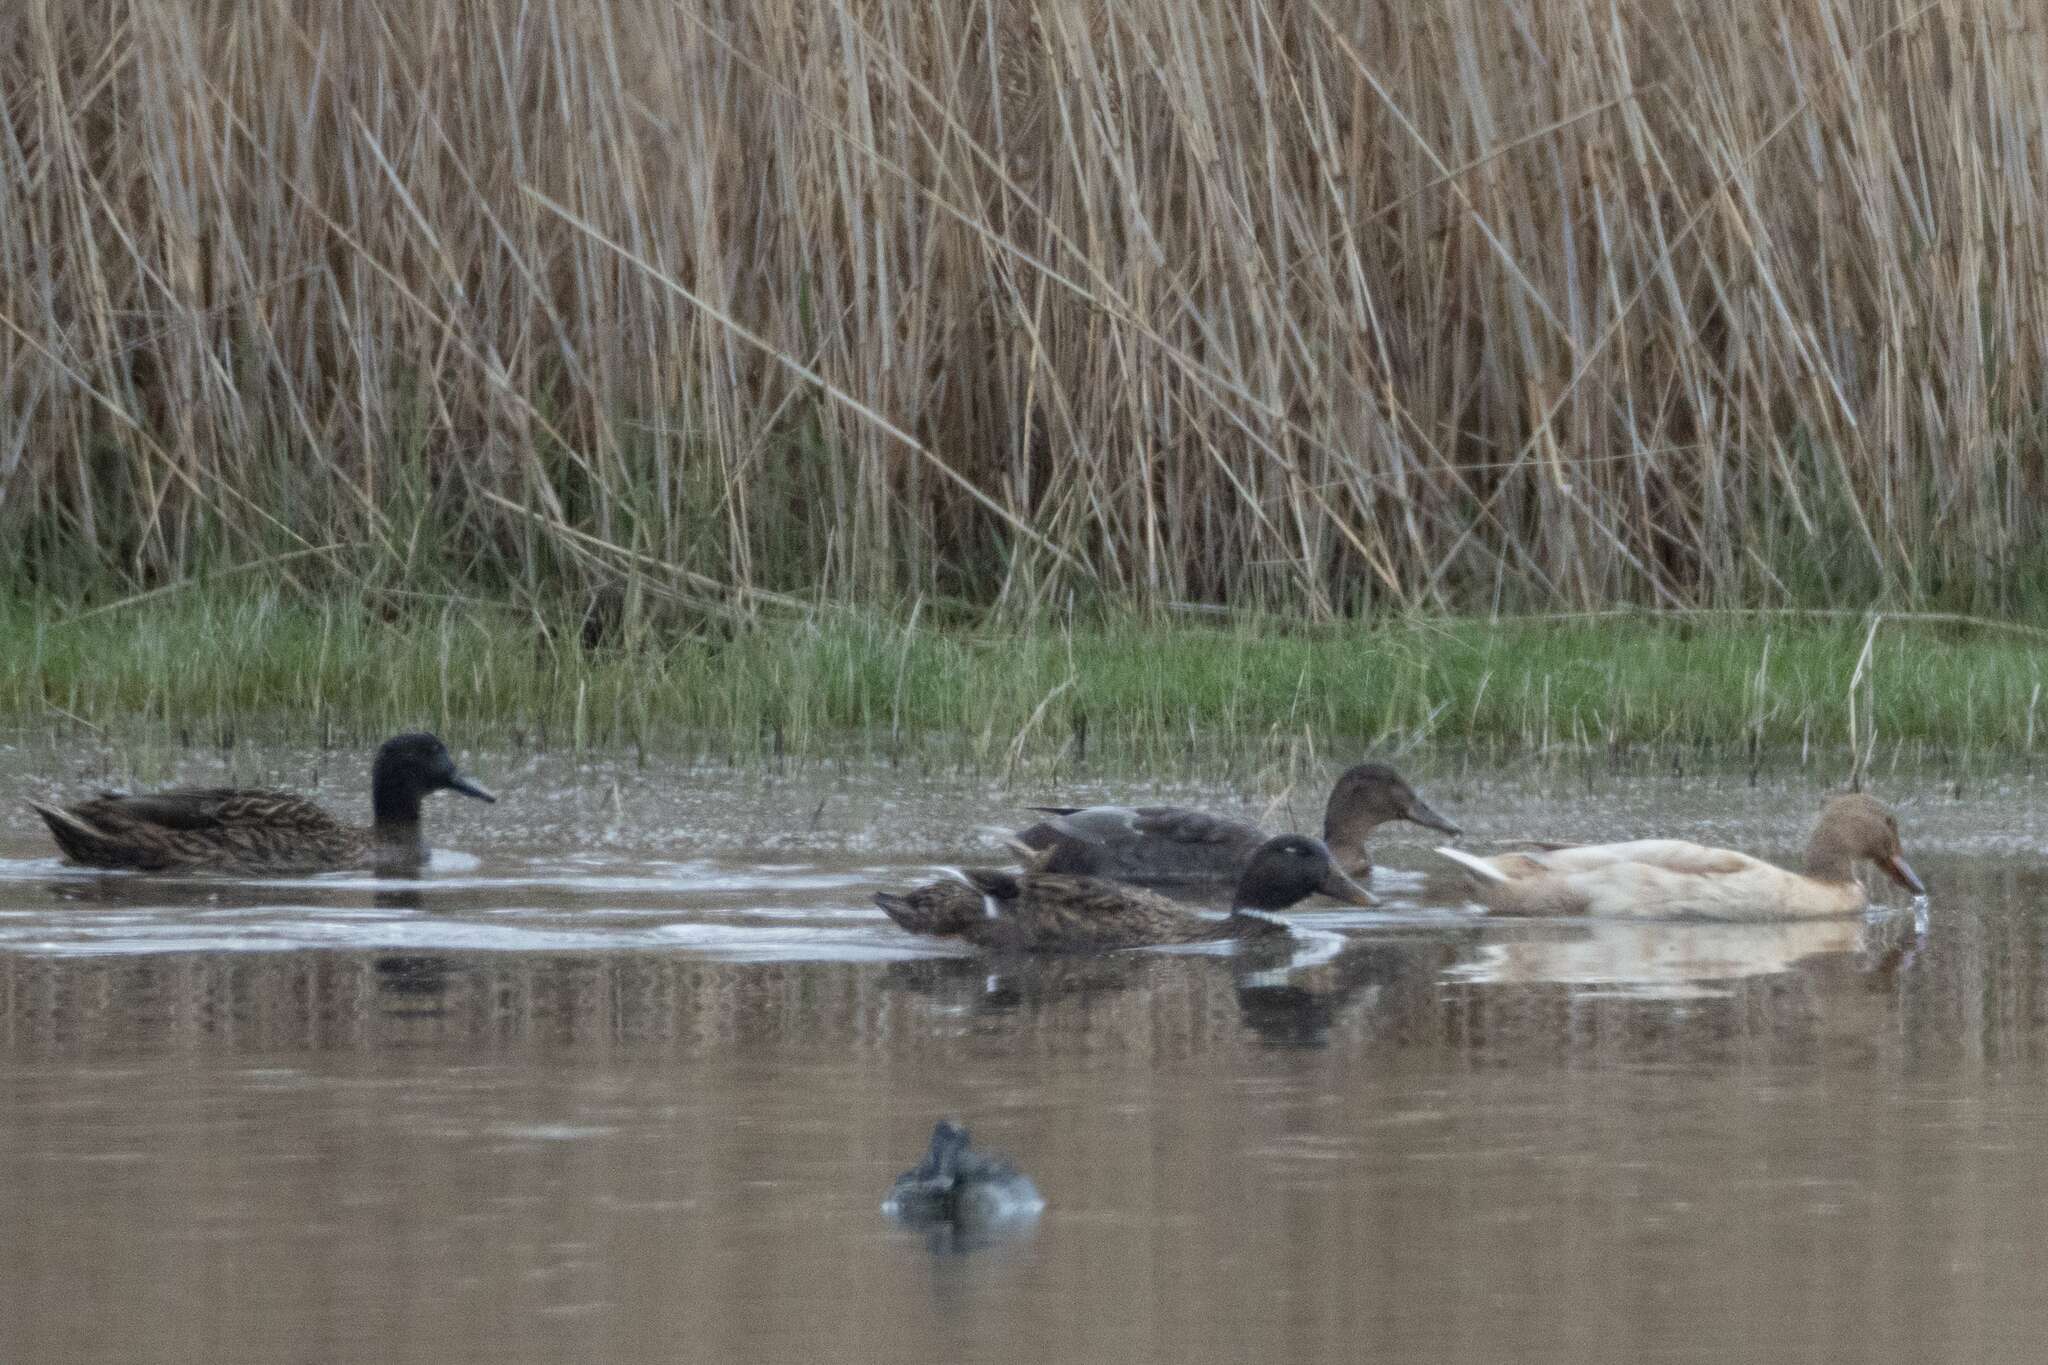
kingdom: Animalia
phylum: Chordata
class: Aves
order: Anseriformes
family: Anatidae
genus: Anas
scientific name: Anas platyrhynchos
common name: Mallard
